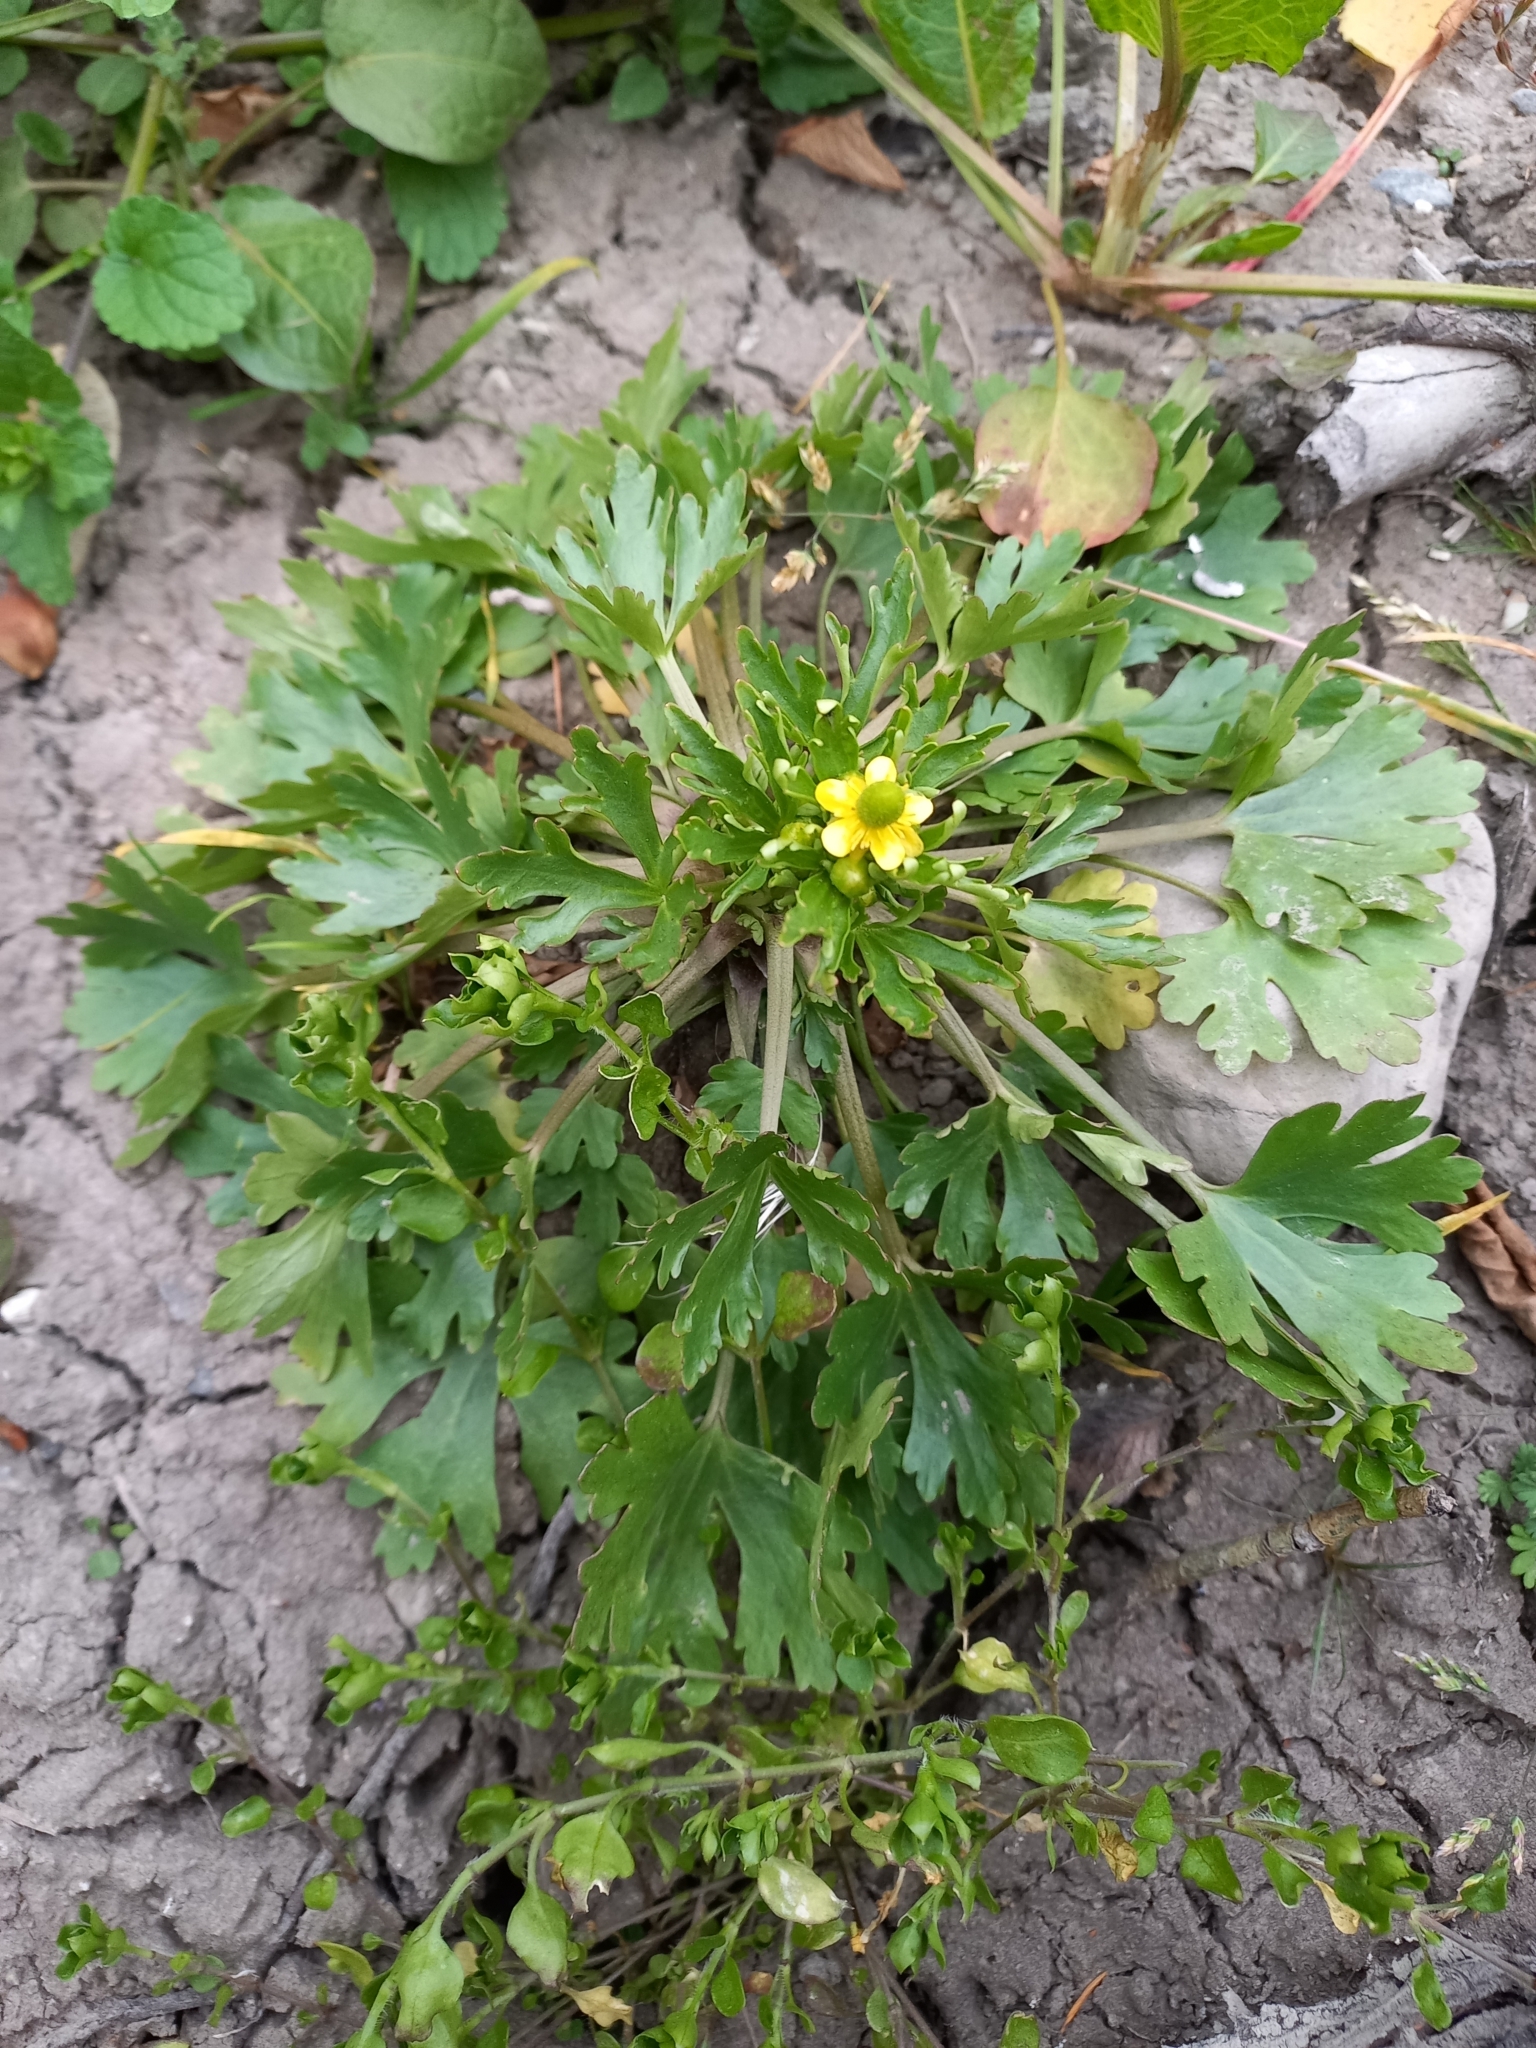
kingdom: Plantae
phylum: Tracheophyta
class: Magnoliopsida
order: Ranunculales
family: Ranunculaceae
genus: Ranunculus
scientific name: Ranunculus sceleratus
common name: Celery-leaved buttercup
